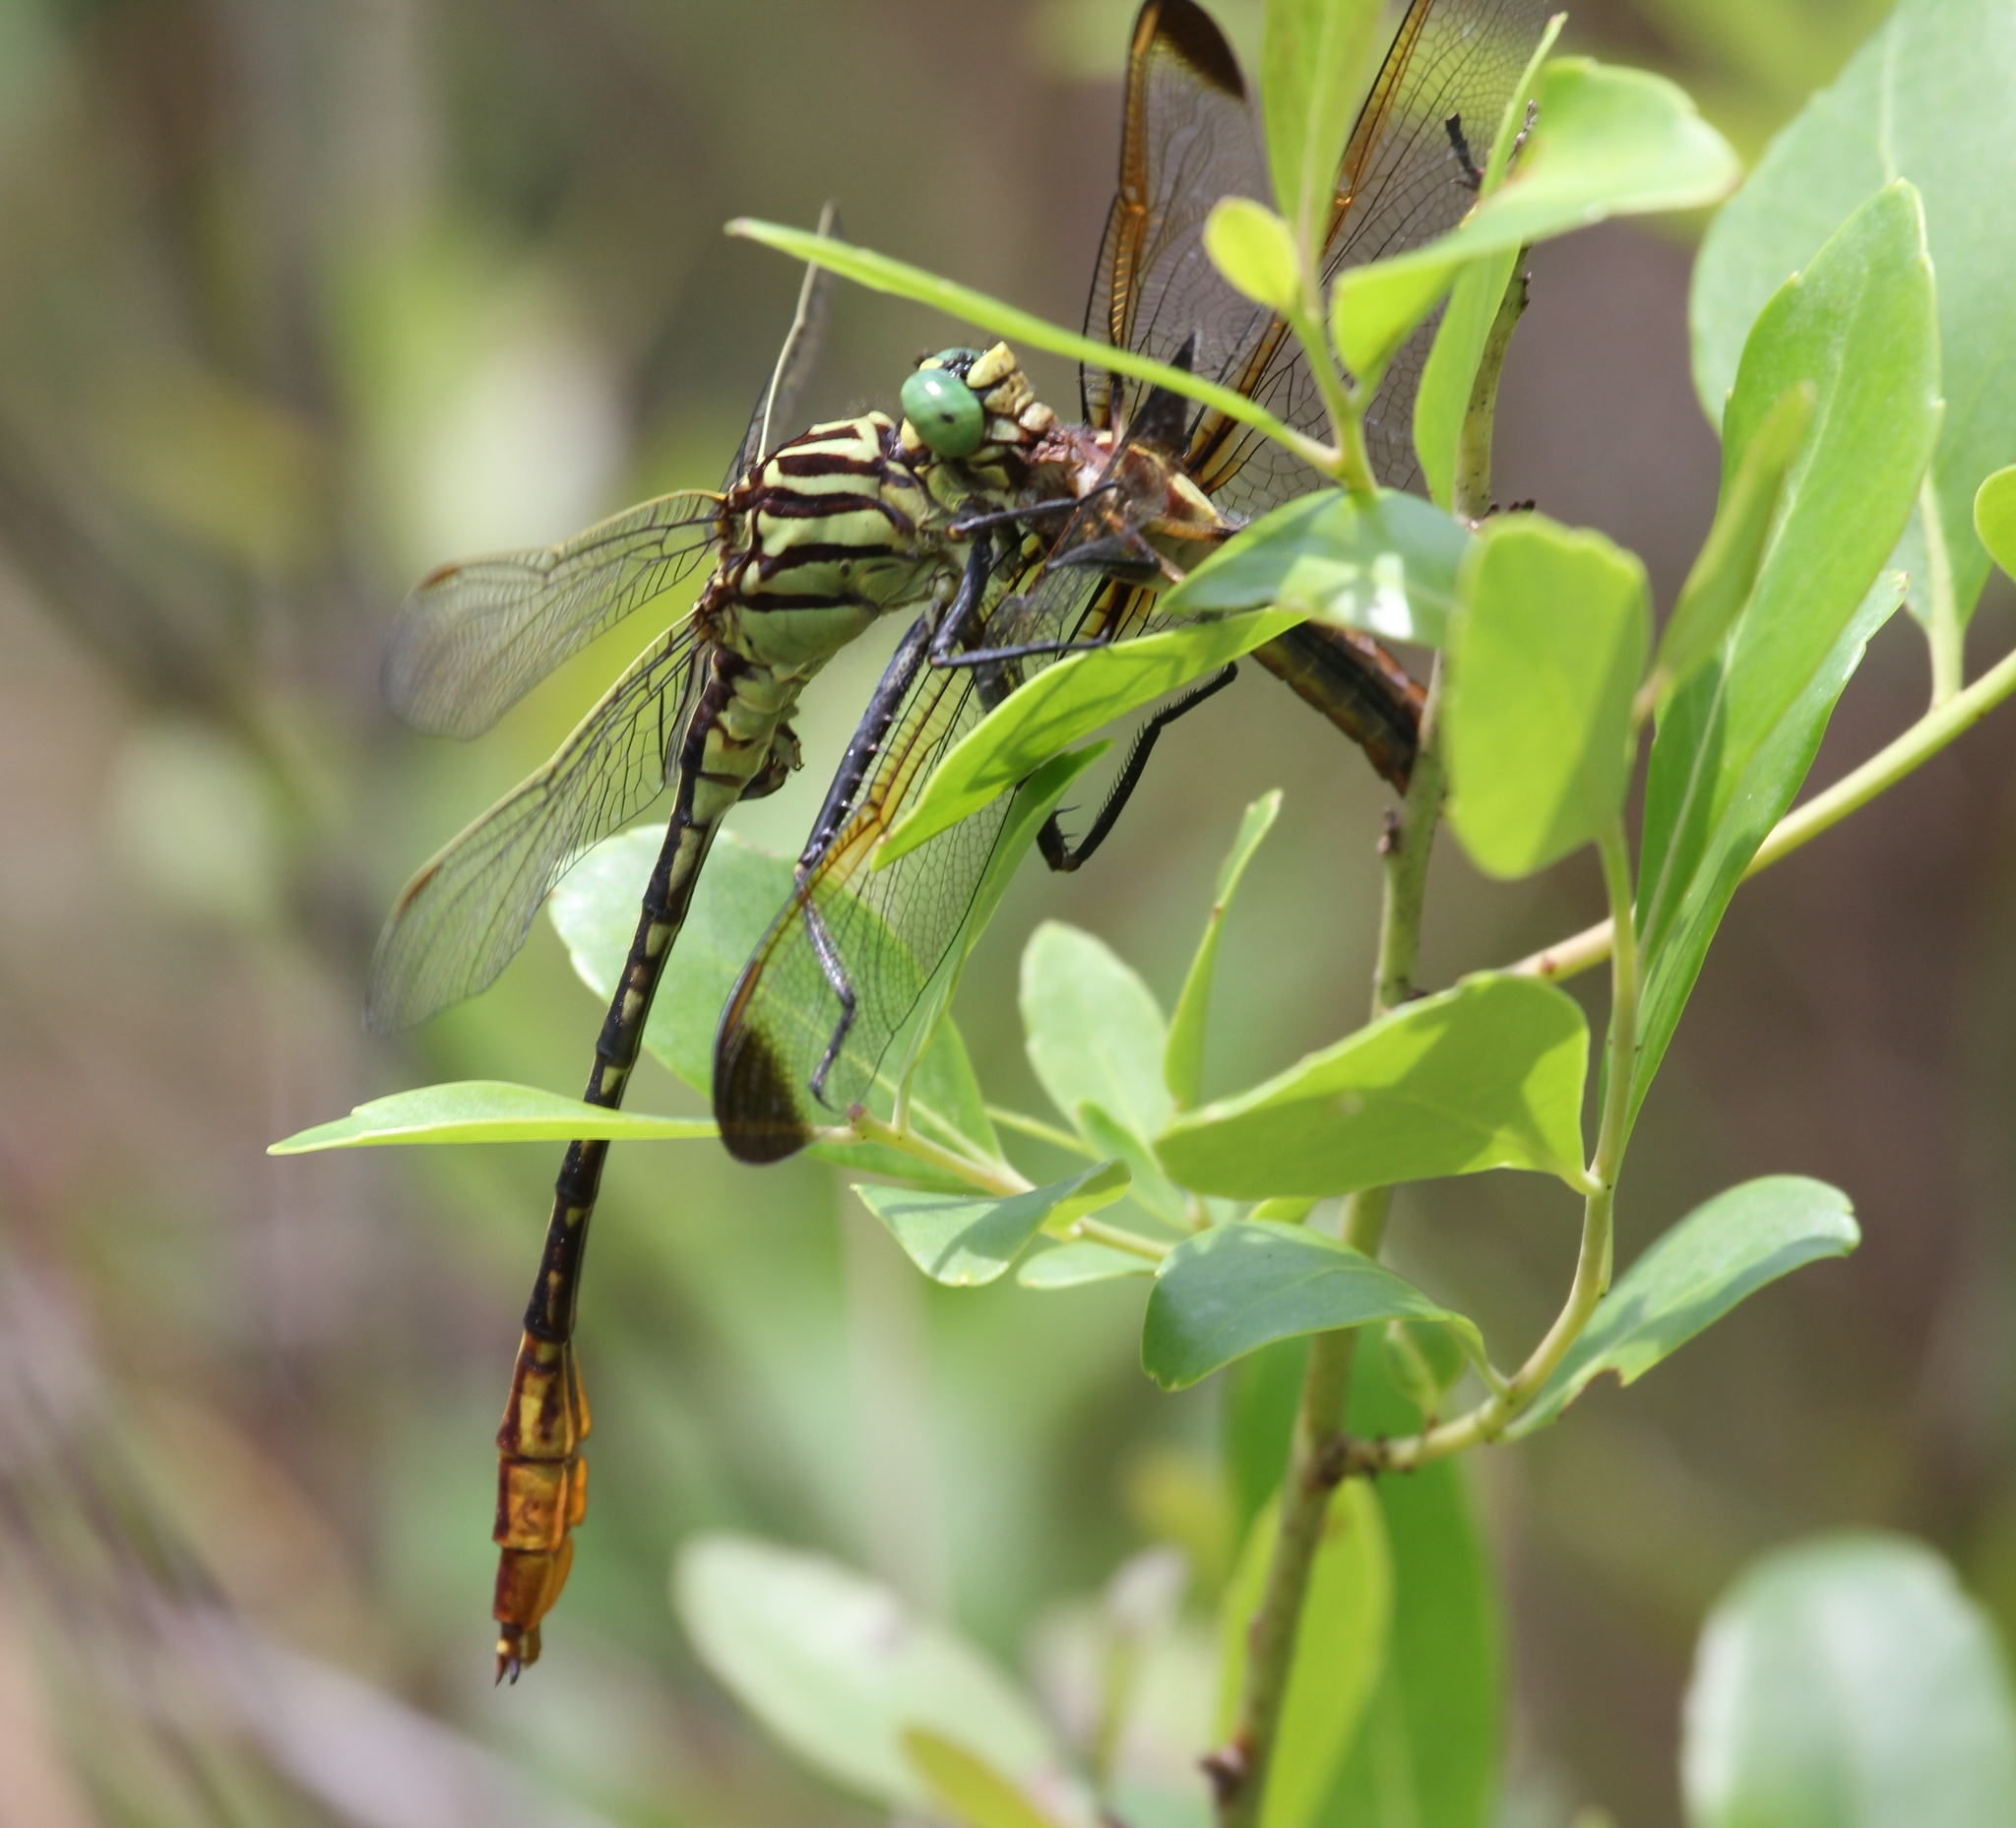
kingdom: Animalia
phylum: Arthropoda
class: Insecta
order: Odonata
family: Gomphidae
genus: Dromogomphus
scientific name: Dromogomphus armatus
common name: Southeastern spinyleg
